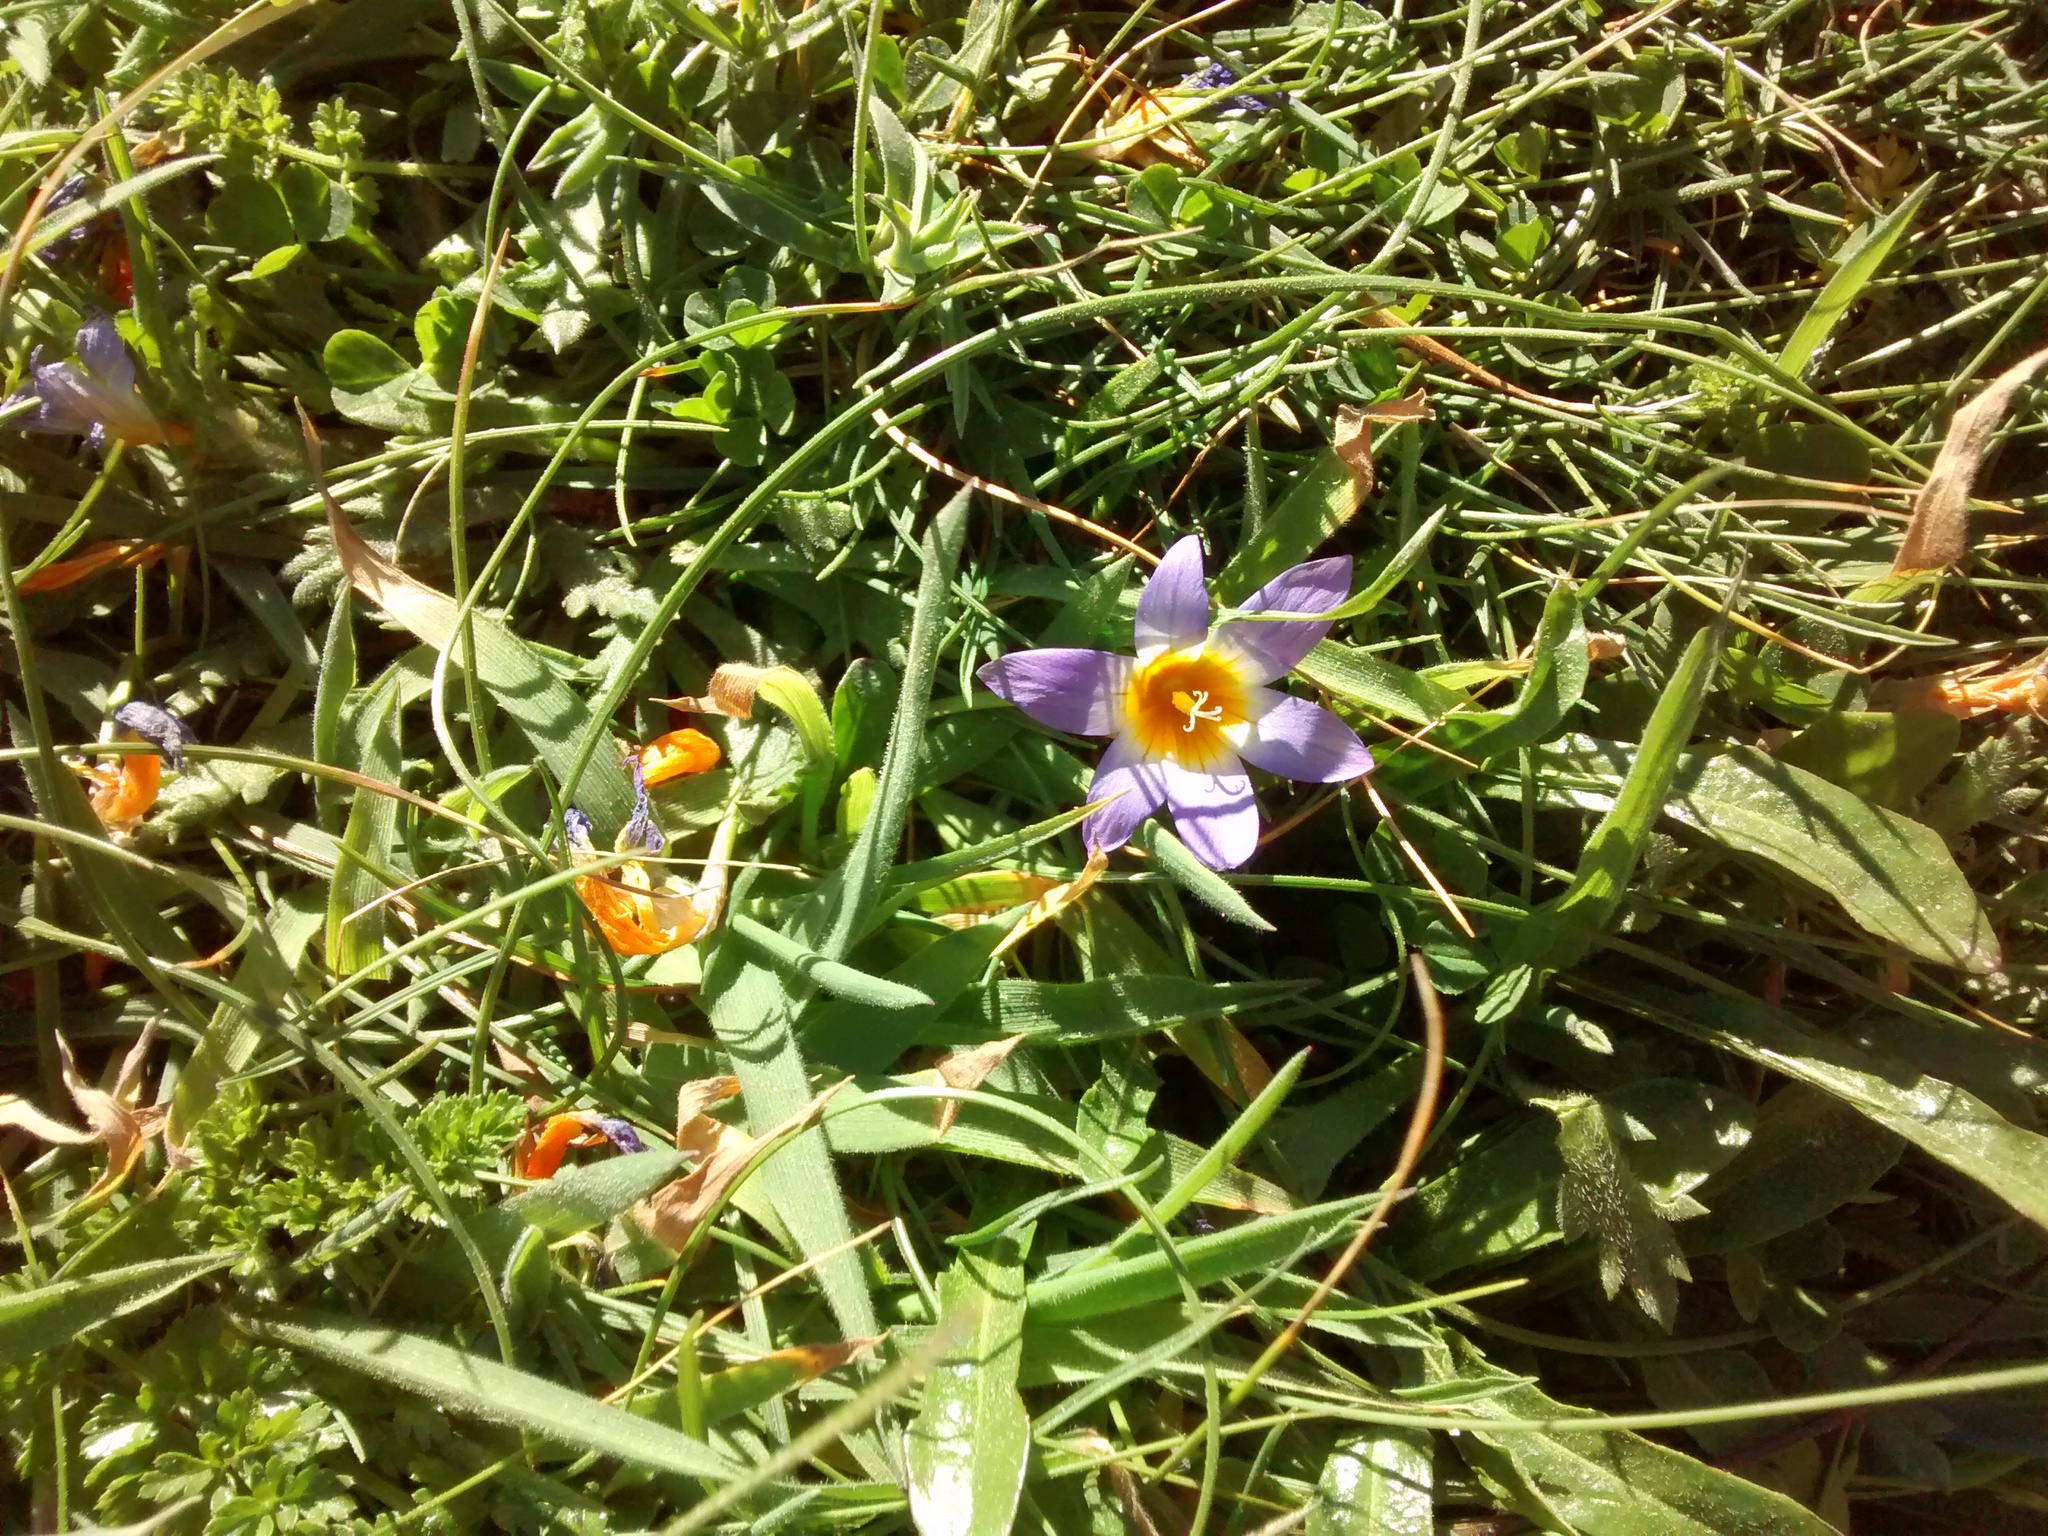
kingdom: Plantae
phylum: Tracheophyta
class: Liliopsida
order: Asparagales
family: Iridaceae
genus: Romulea
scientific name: Romulea clusiana
